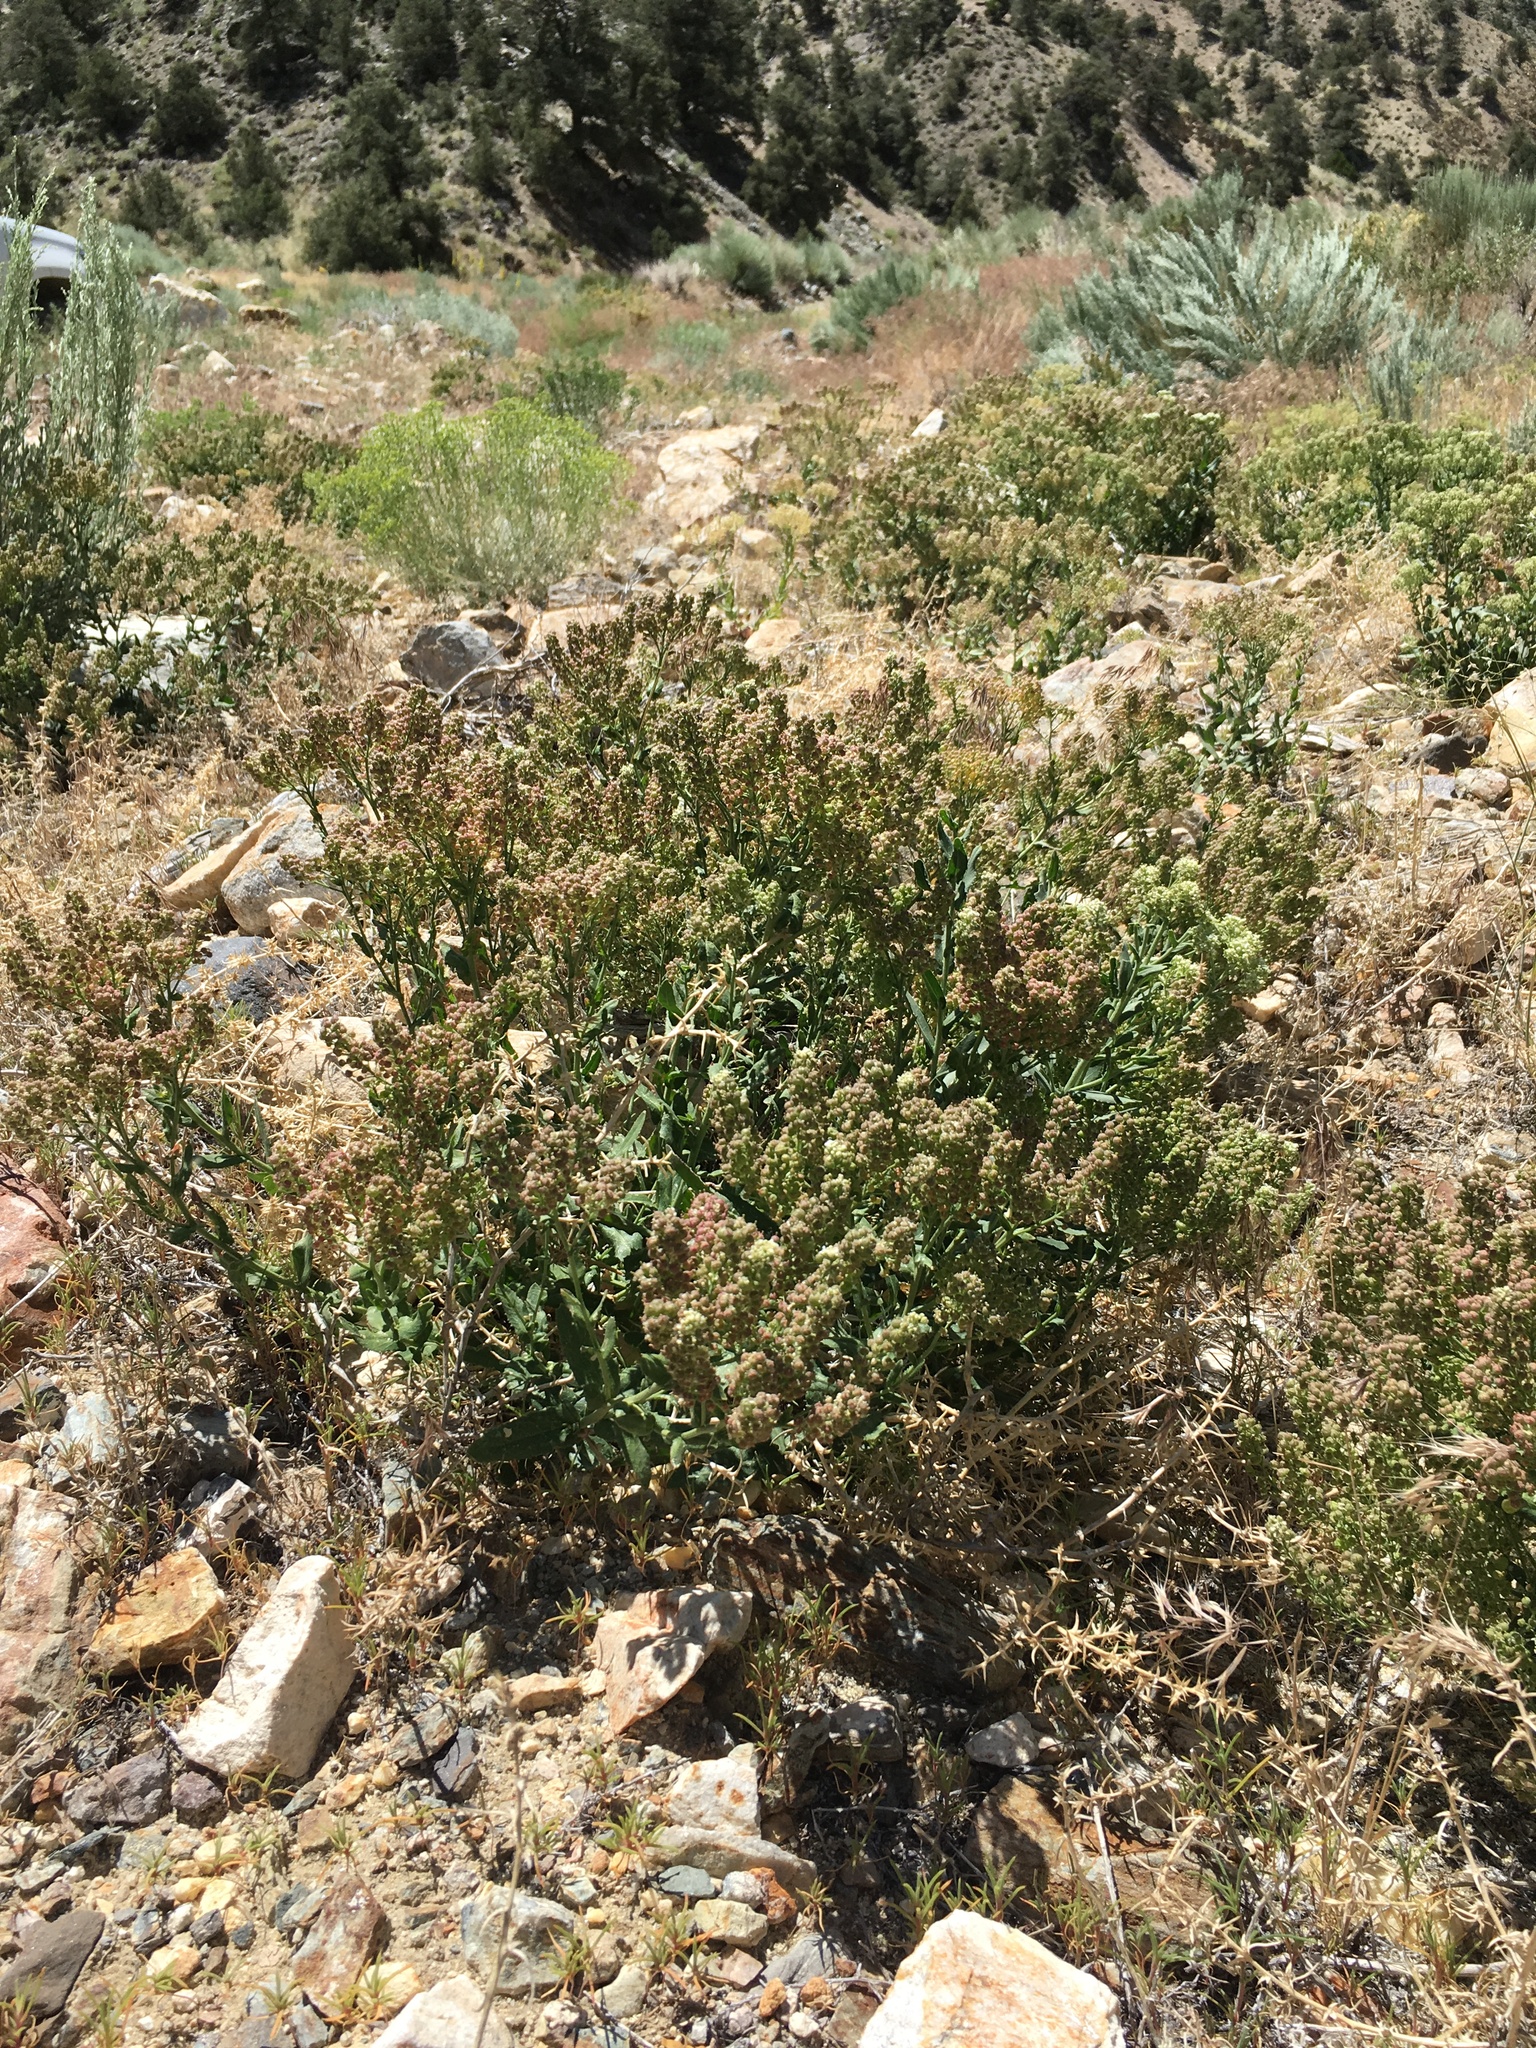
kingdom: Plantae
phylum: Tracheophyta
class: Magnoliopsida
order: Brassicales
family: Brassicaceae
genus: Lepidium
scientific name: Lepidium appelianum
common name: Hairy whitetop
